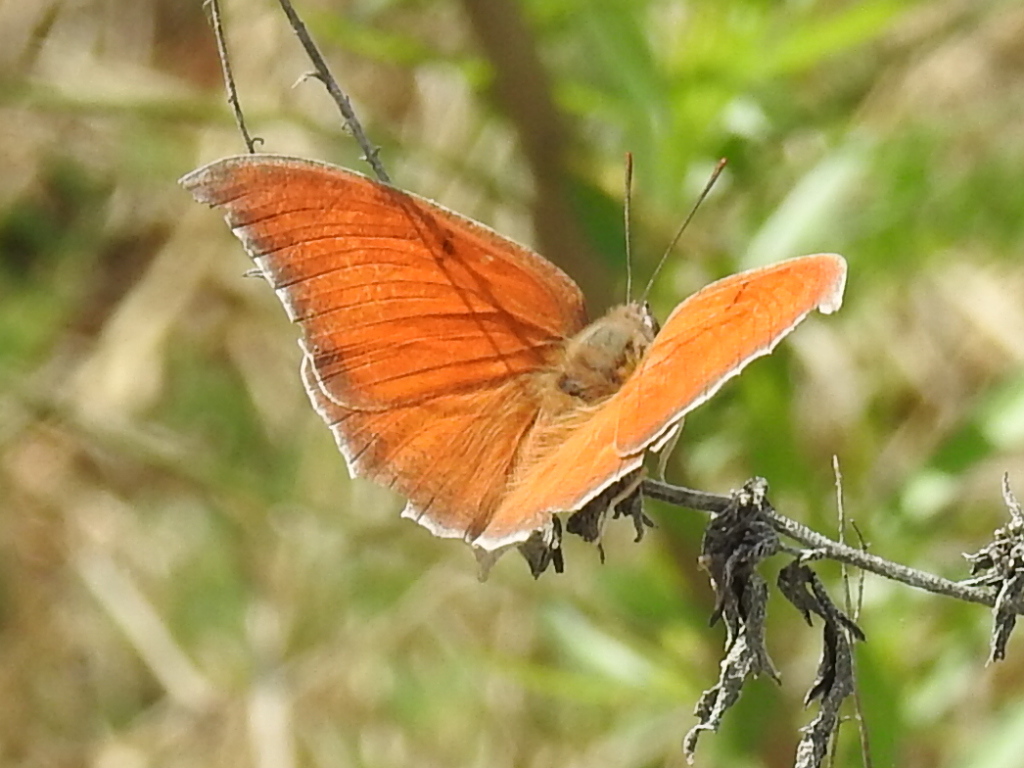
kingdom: Animalia
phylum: Arthropoda
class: Insecta
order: Lepidoptera
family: Nymphalidae
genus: Anaea
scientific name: Anaea andria
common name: Goatweed leafwing
